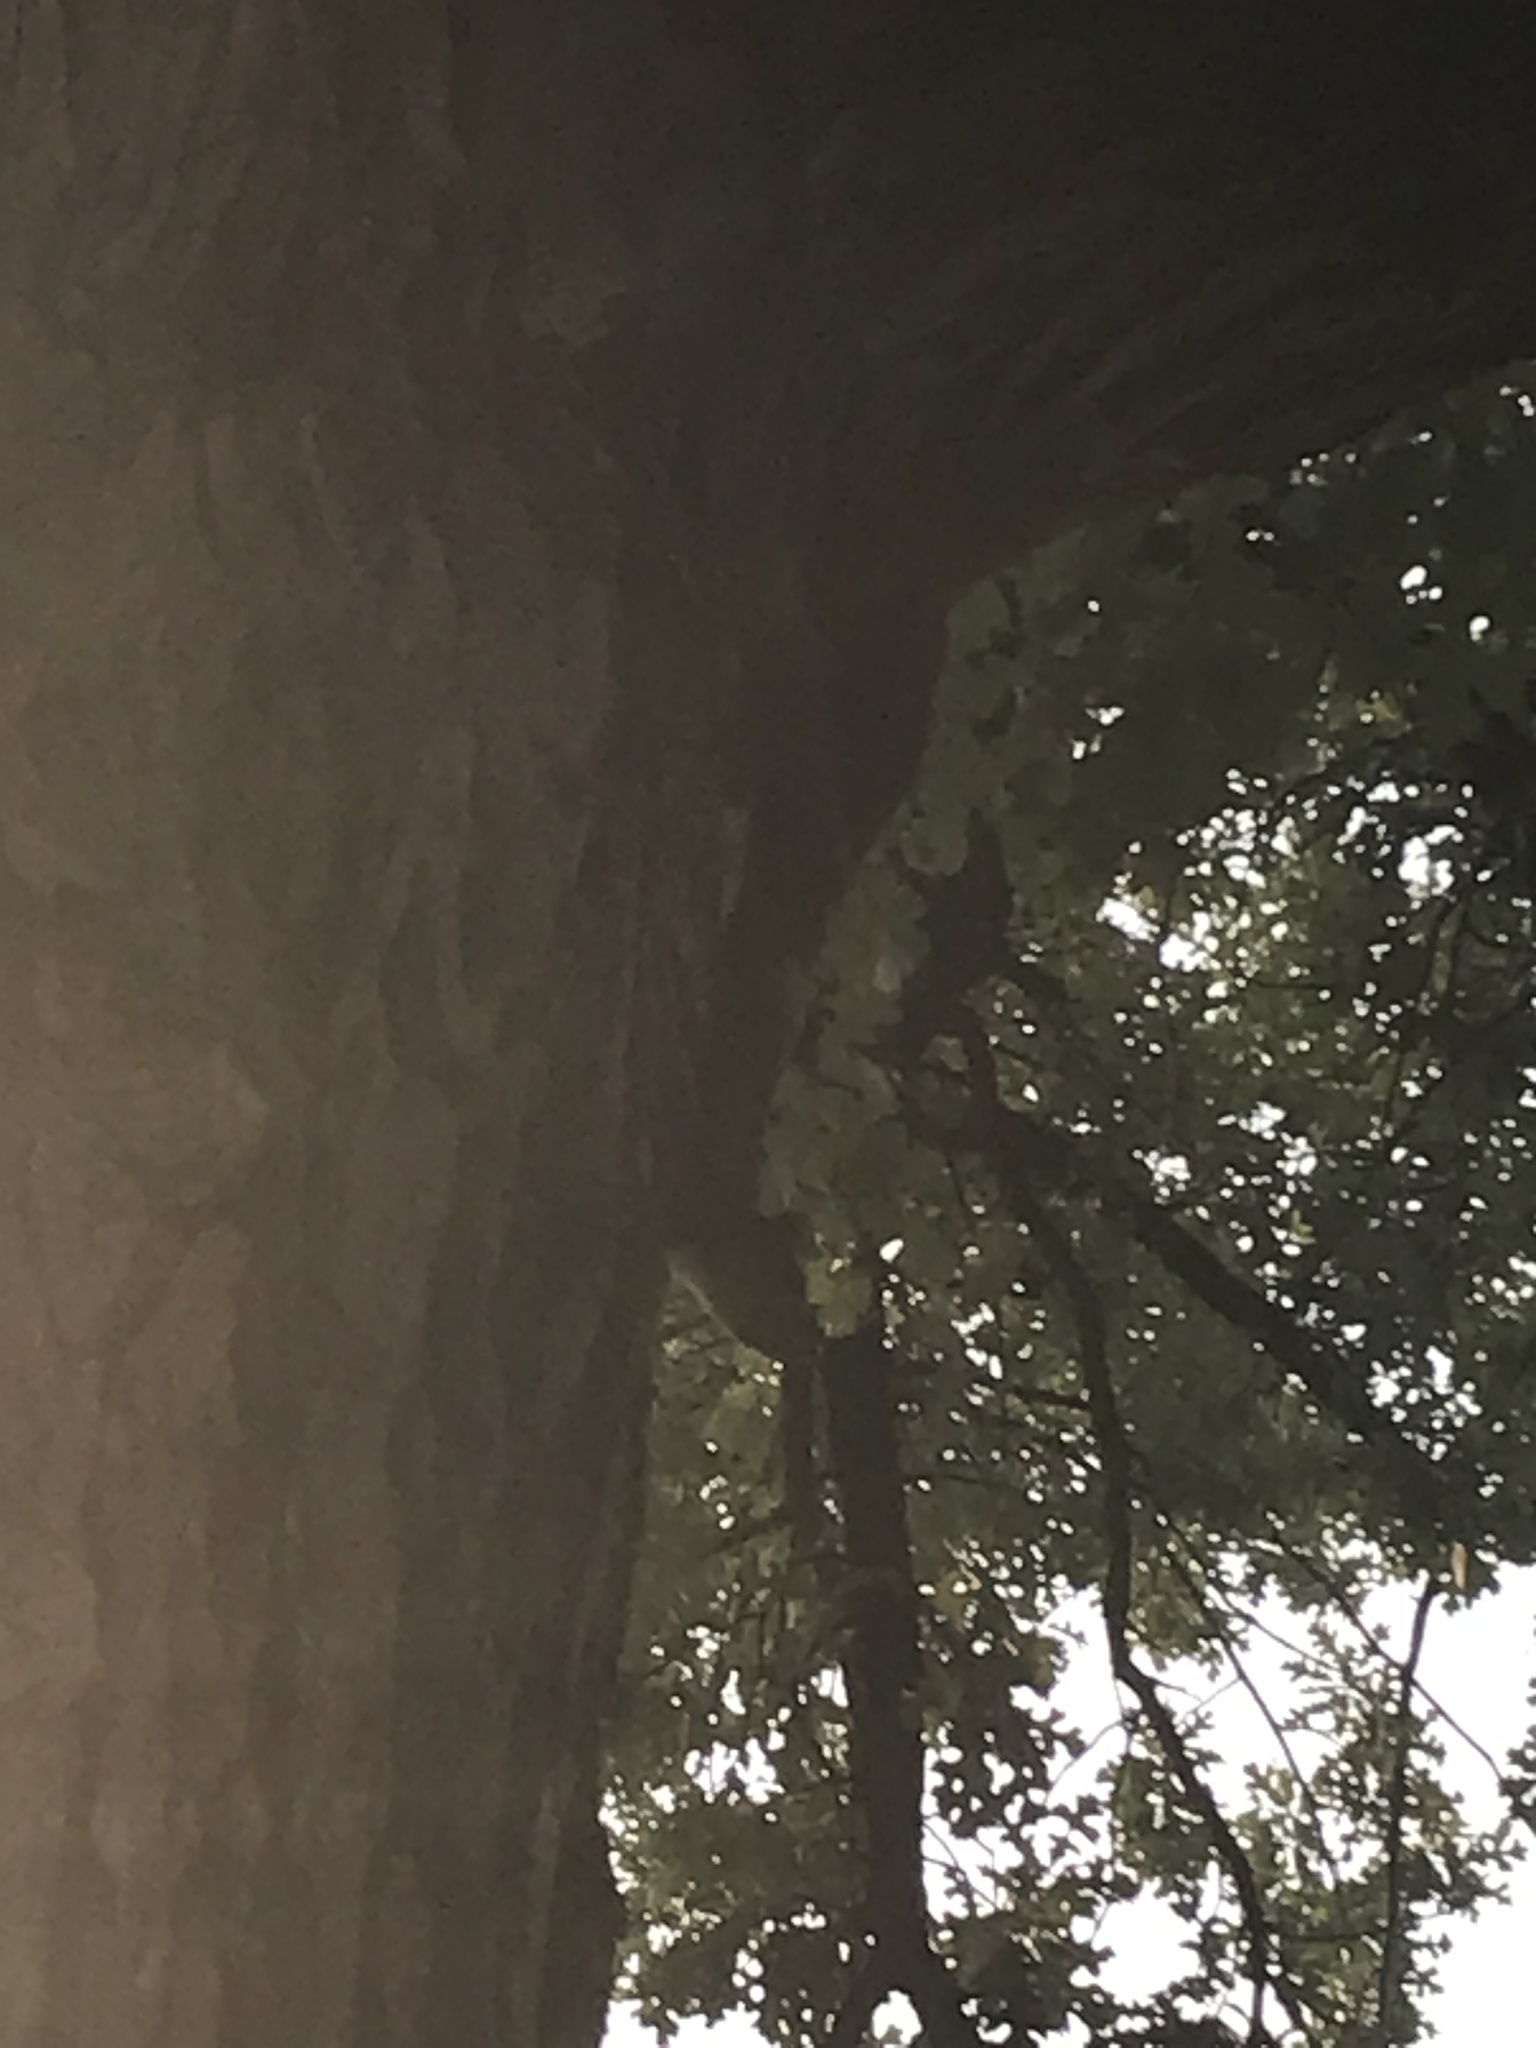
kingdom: Animalia
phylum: Chordata
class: Mammalia
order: Rodentia
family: Sciuridae
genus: Sciurus
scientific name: Sciurus niger
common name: Fox squirrel
